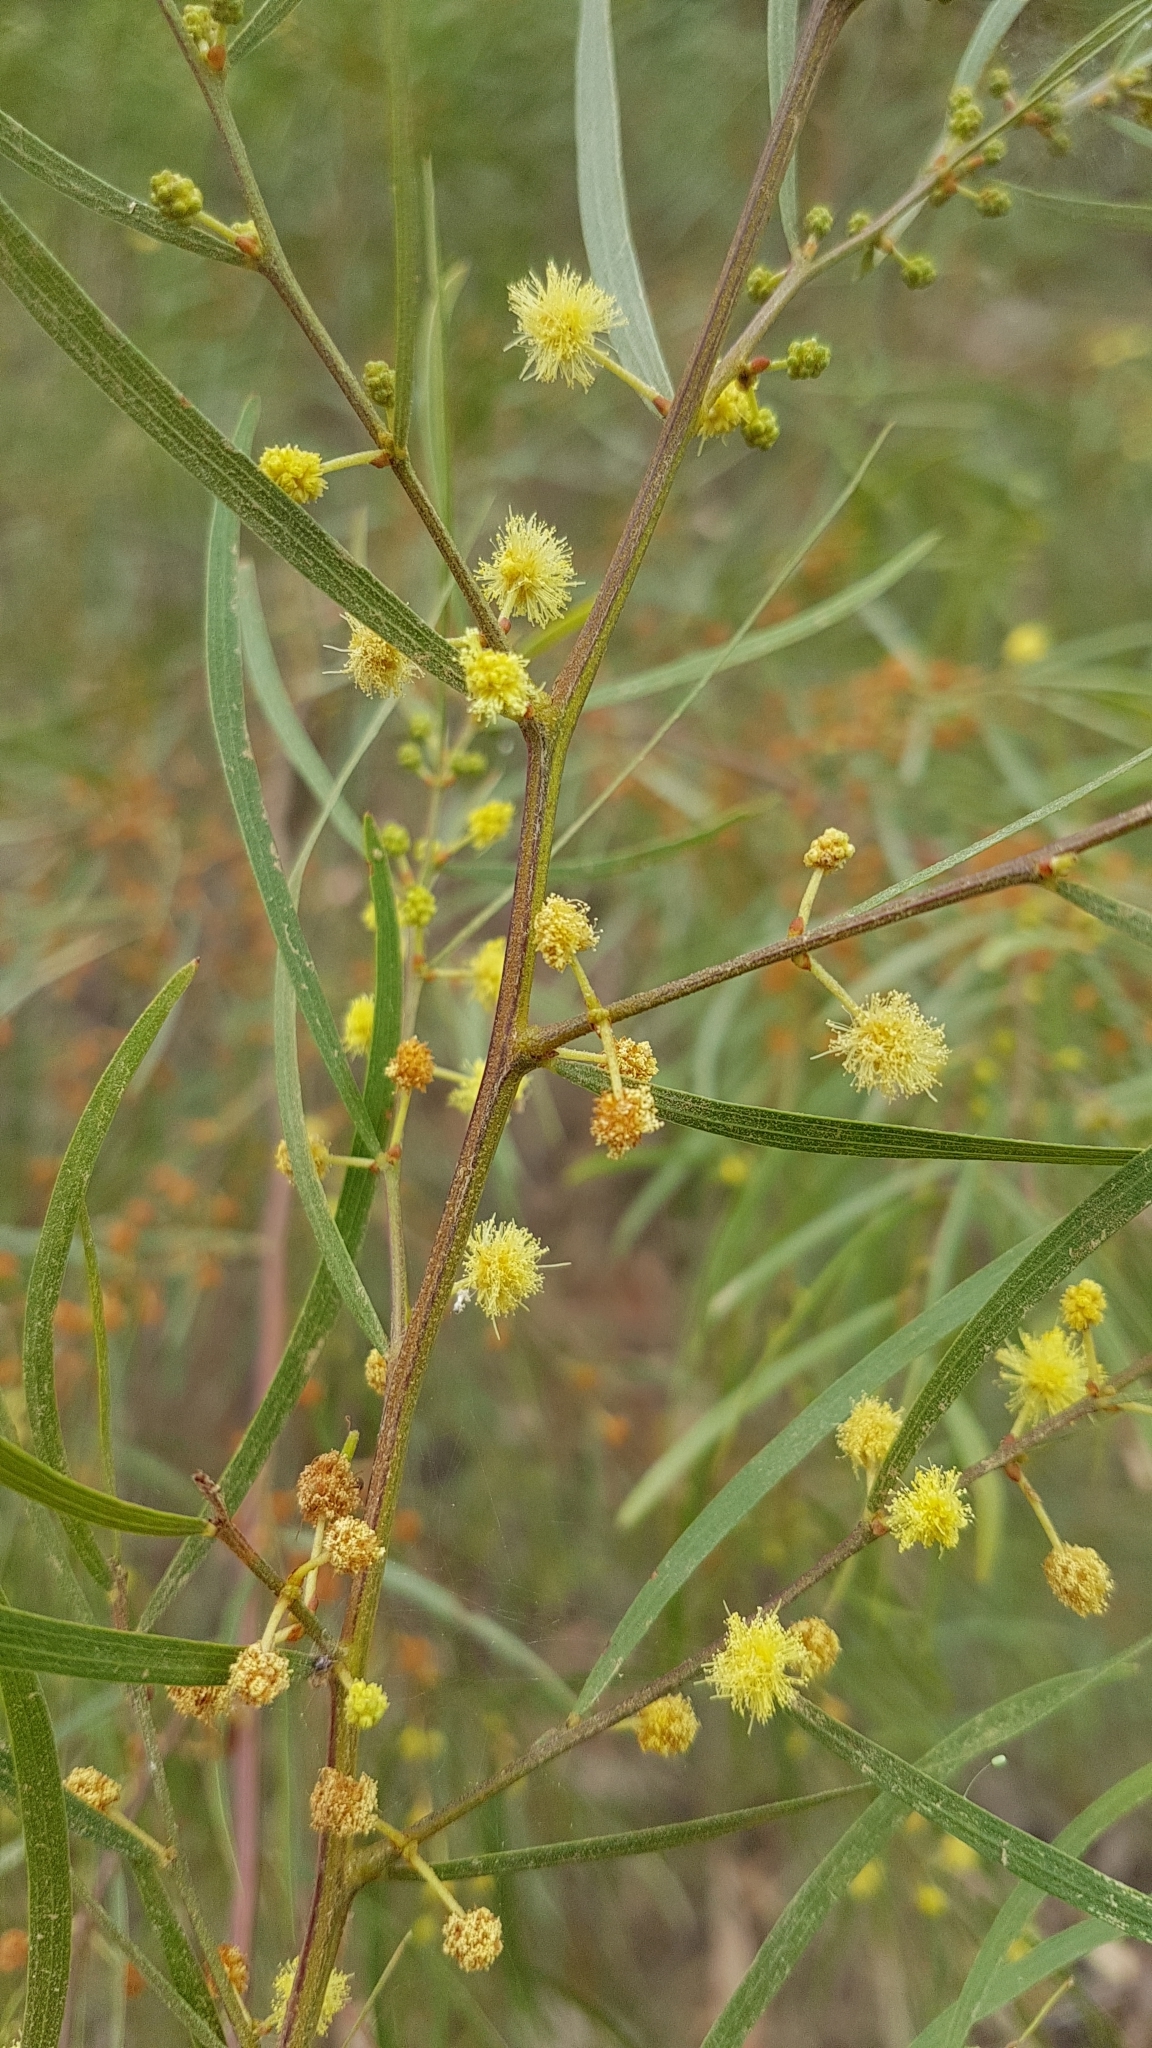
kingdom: Plantae
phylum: Tracheophyta
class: Magnoliopsida
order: Fabales
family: Fabaceae
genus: Acacia
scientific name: Acacia cognata
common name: Narrow-leaf bower wattle
